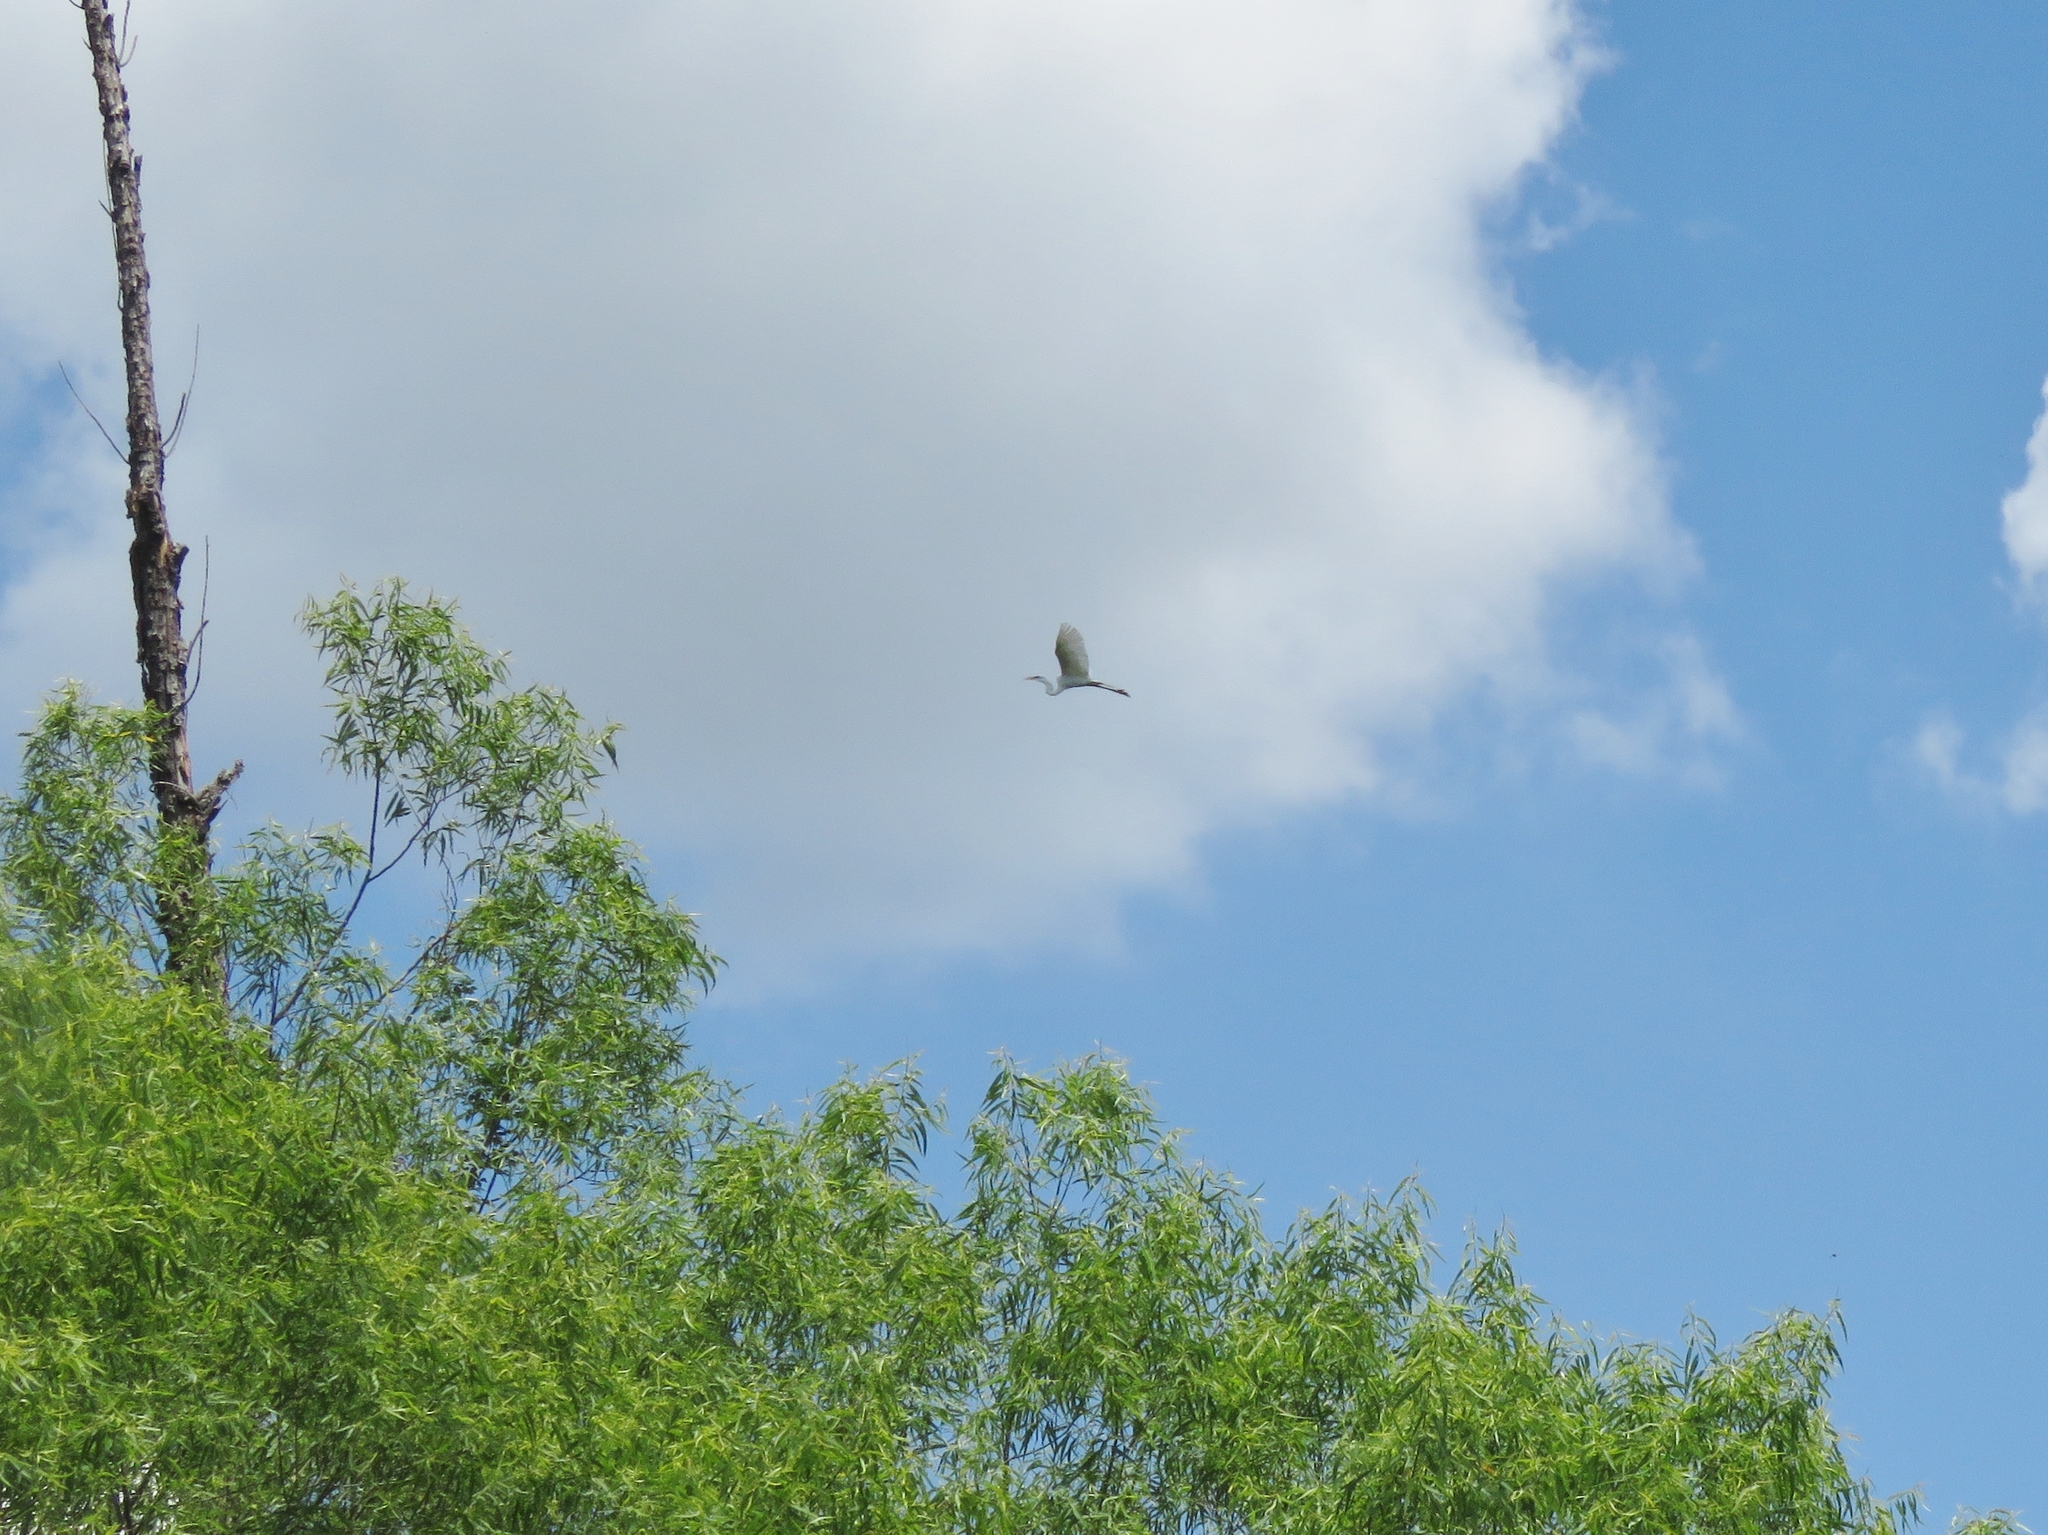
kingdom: Animalia
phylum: Chordata
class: Aves
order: Pelecaniformes
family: Ardeidae
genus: Ardea
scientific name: Ardea alba
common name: Great egret
